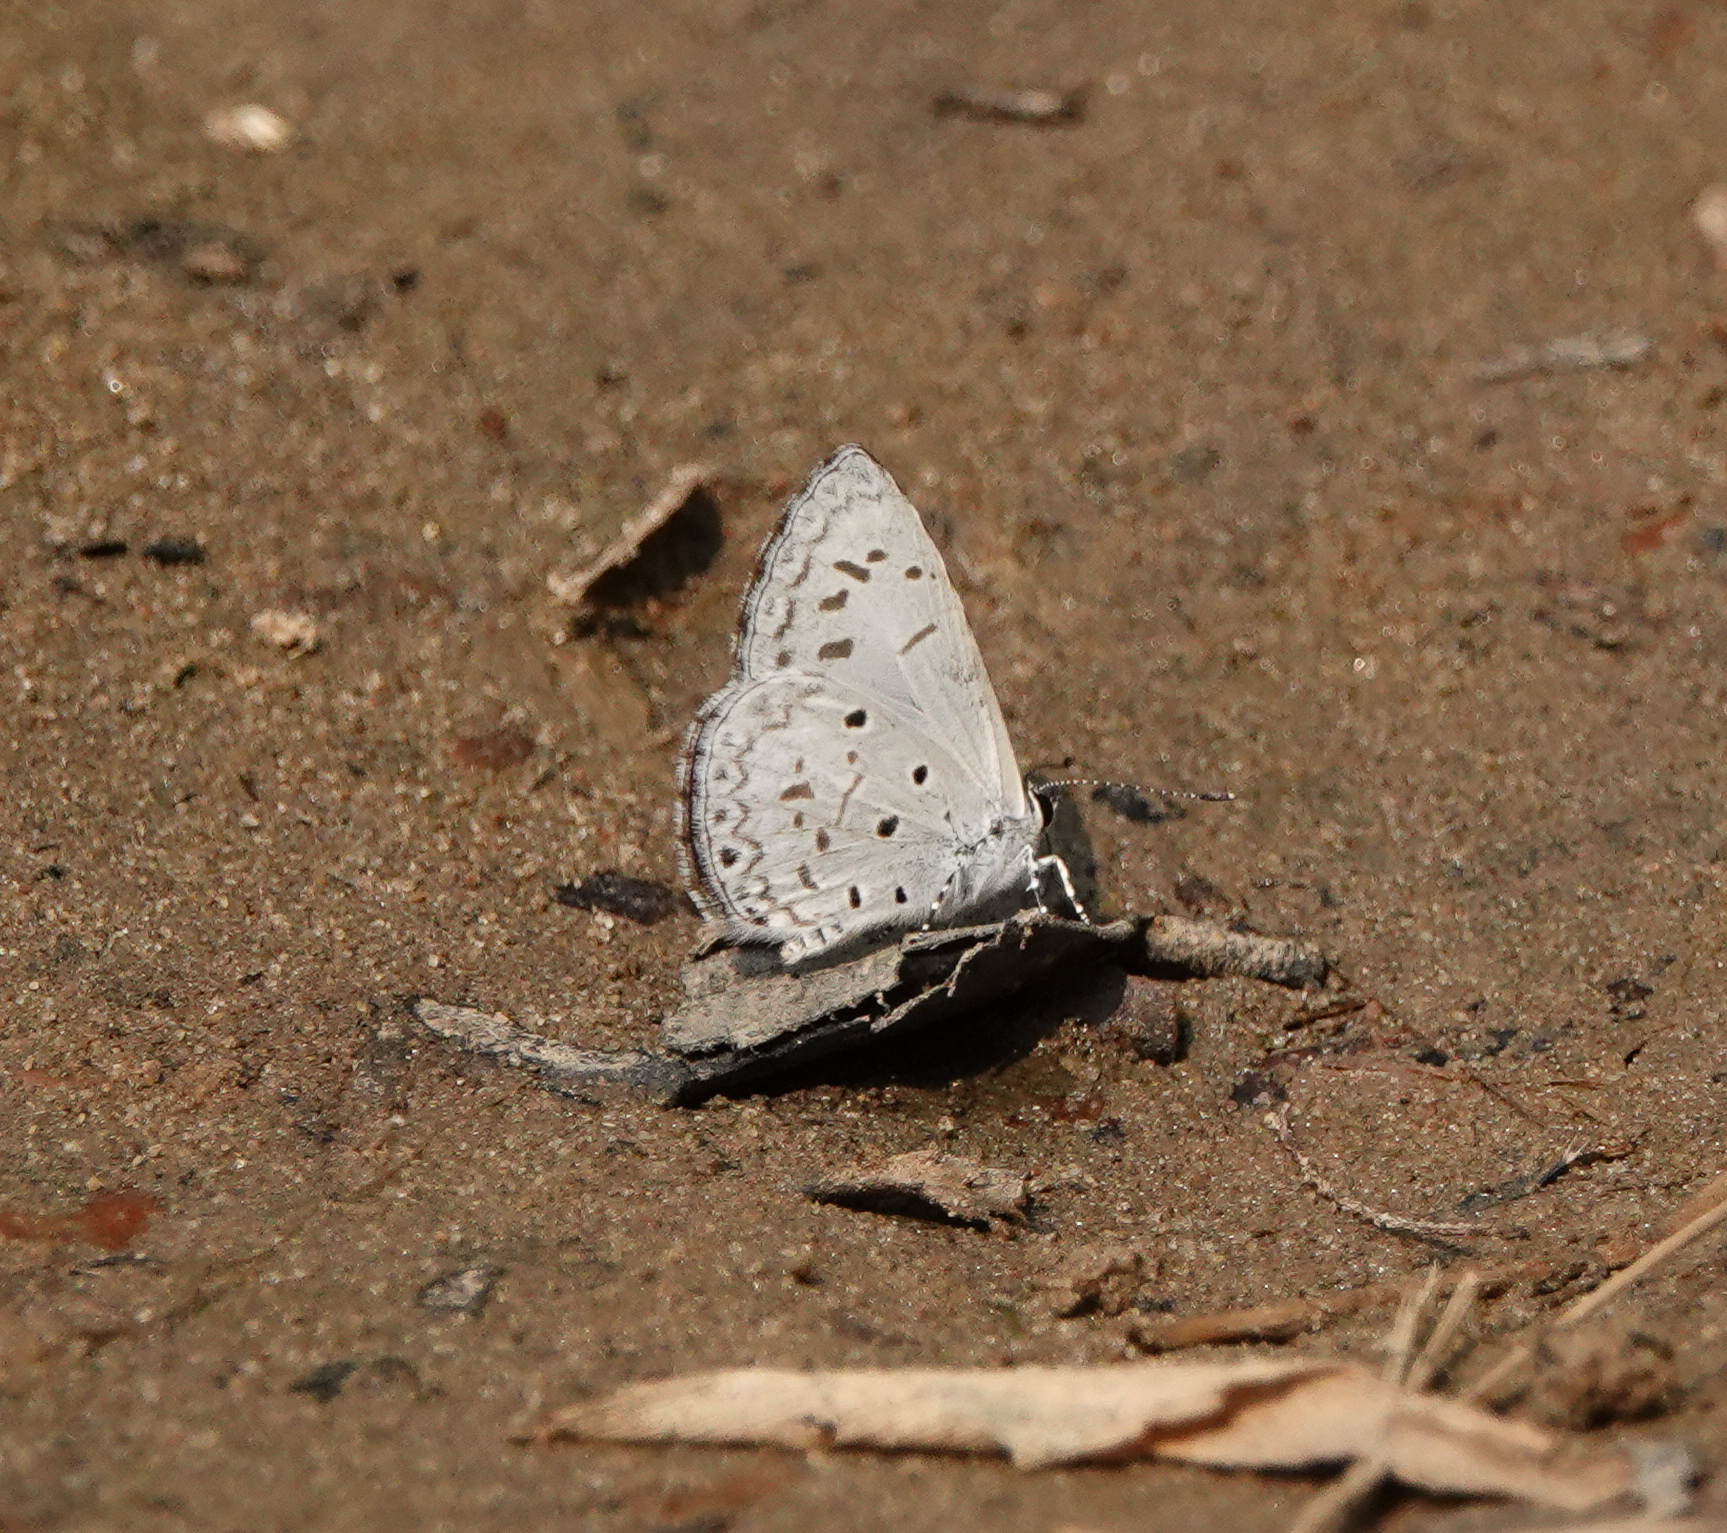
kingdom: Animalia
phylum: Arthropoda
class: Insecta
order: Lepidoptera
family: Lycaenidae
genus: Acytolepis
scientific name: Acytolepis puspa
